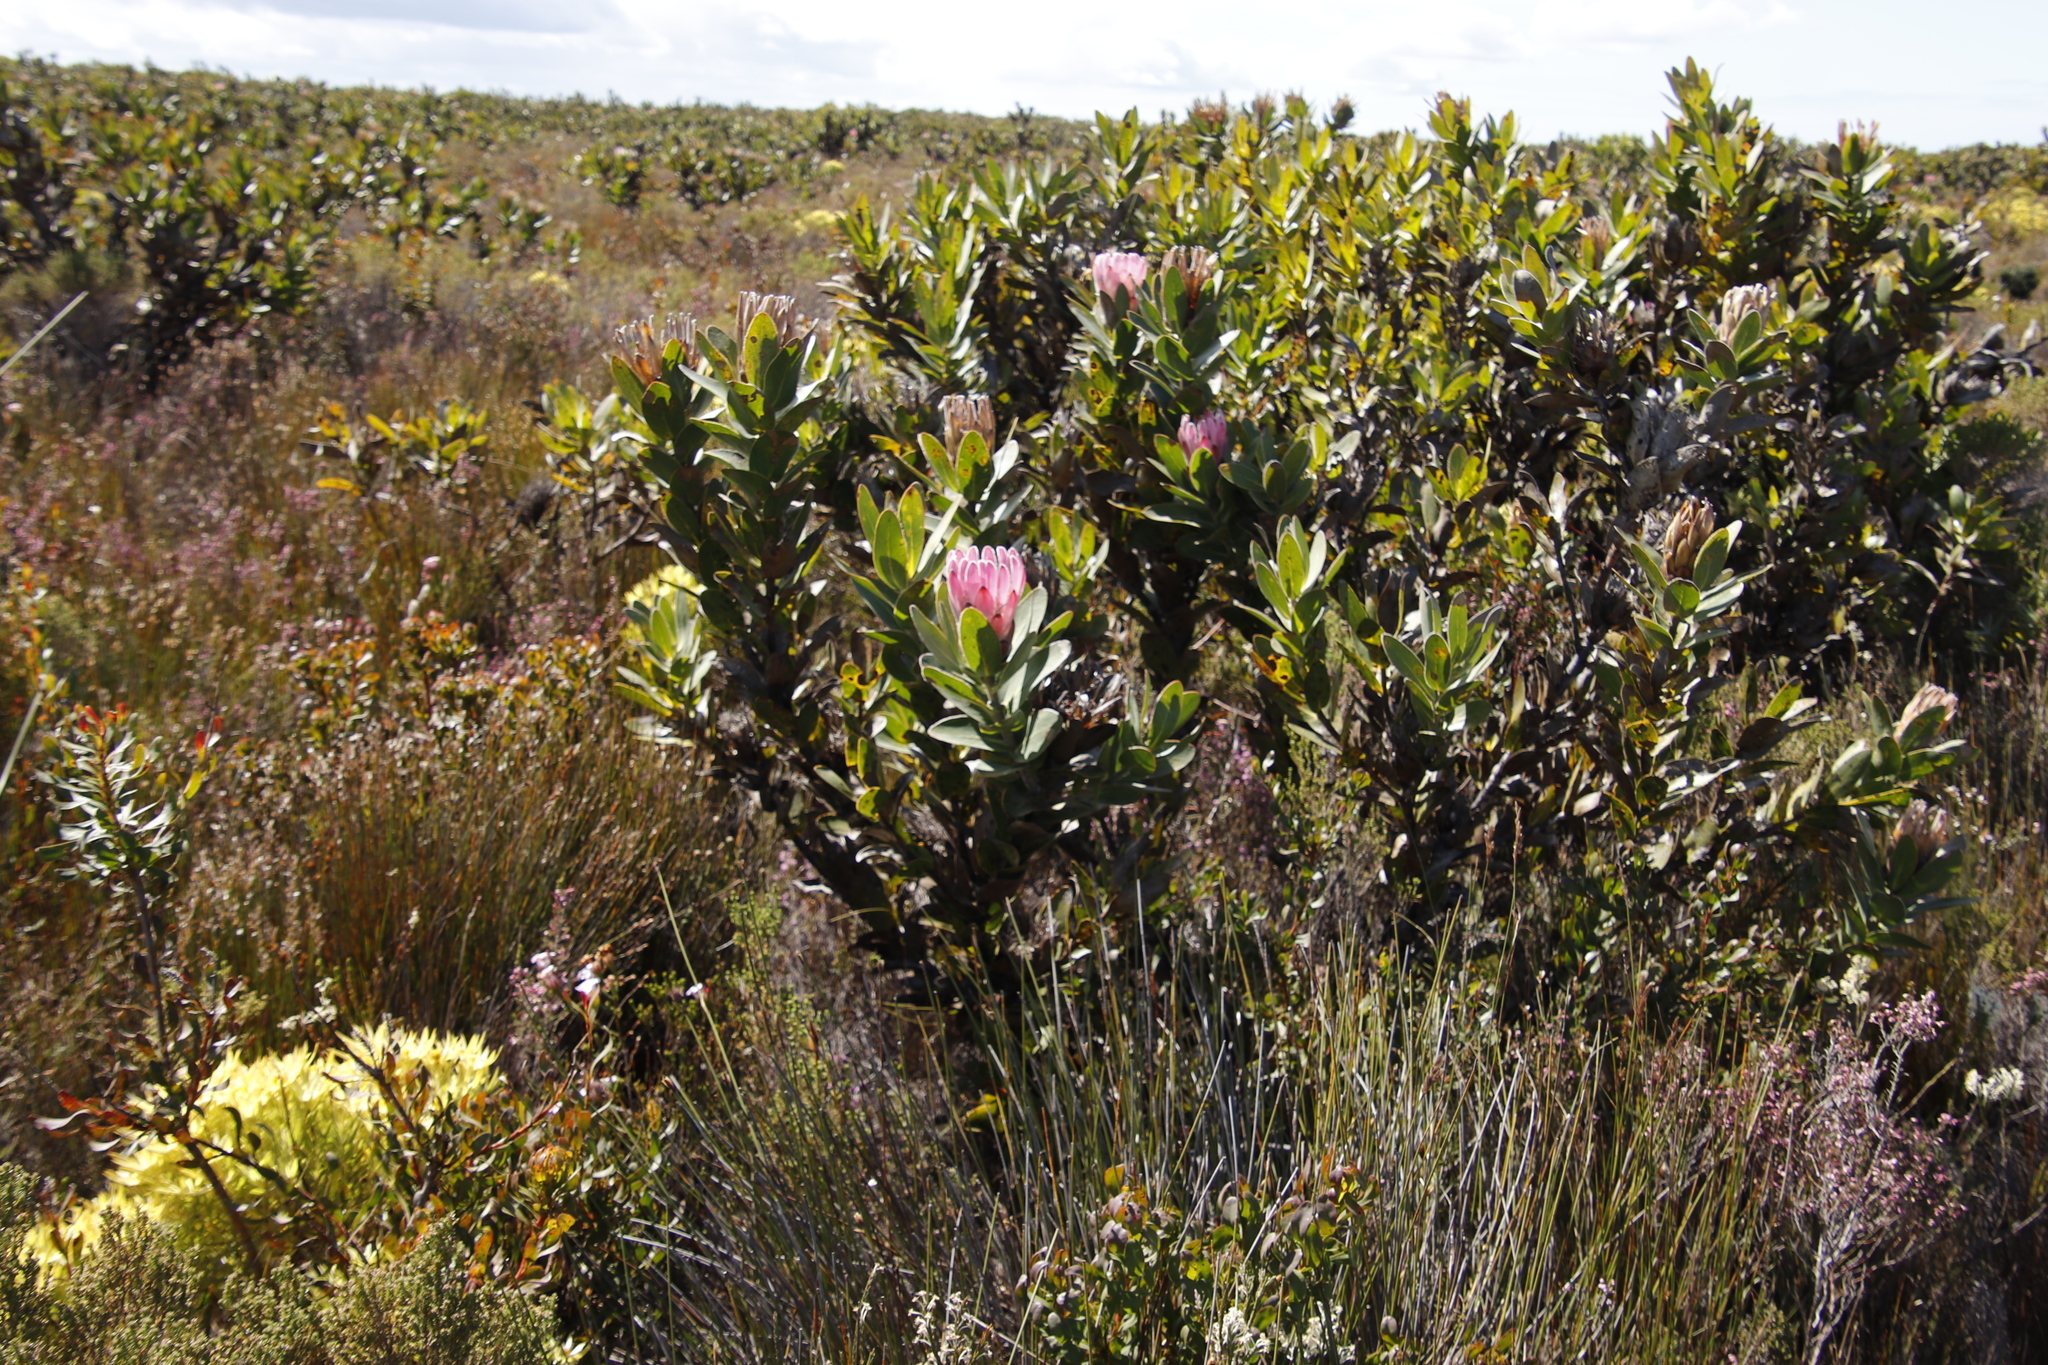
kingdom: Plantae
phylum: Tracheophyta
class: Magnoliopsida
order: Proteales
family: Proteaceae
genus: Protea
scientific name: Protea compacta
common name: Bot river protea
